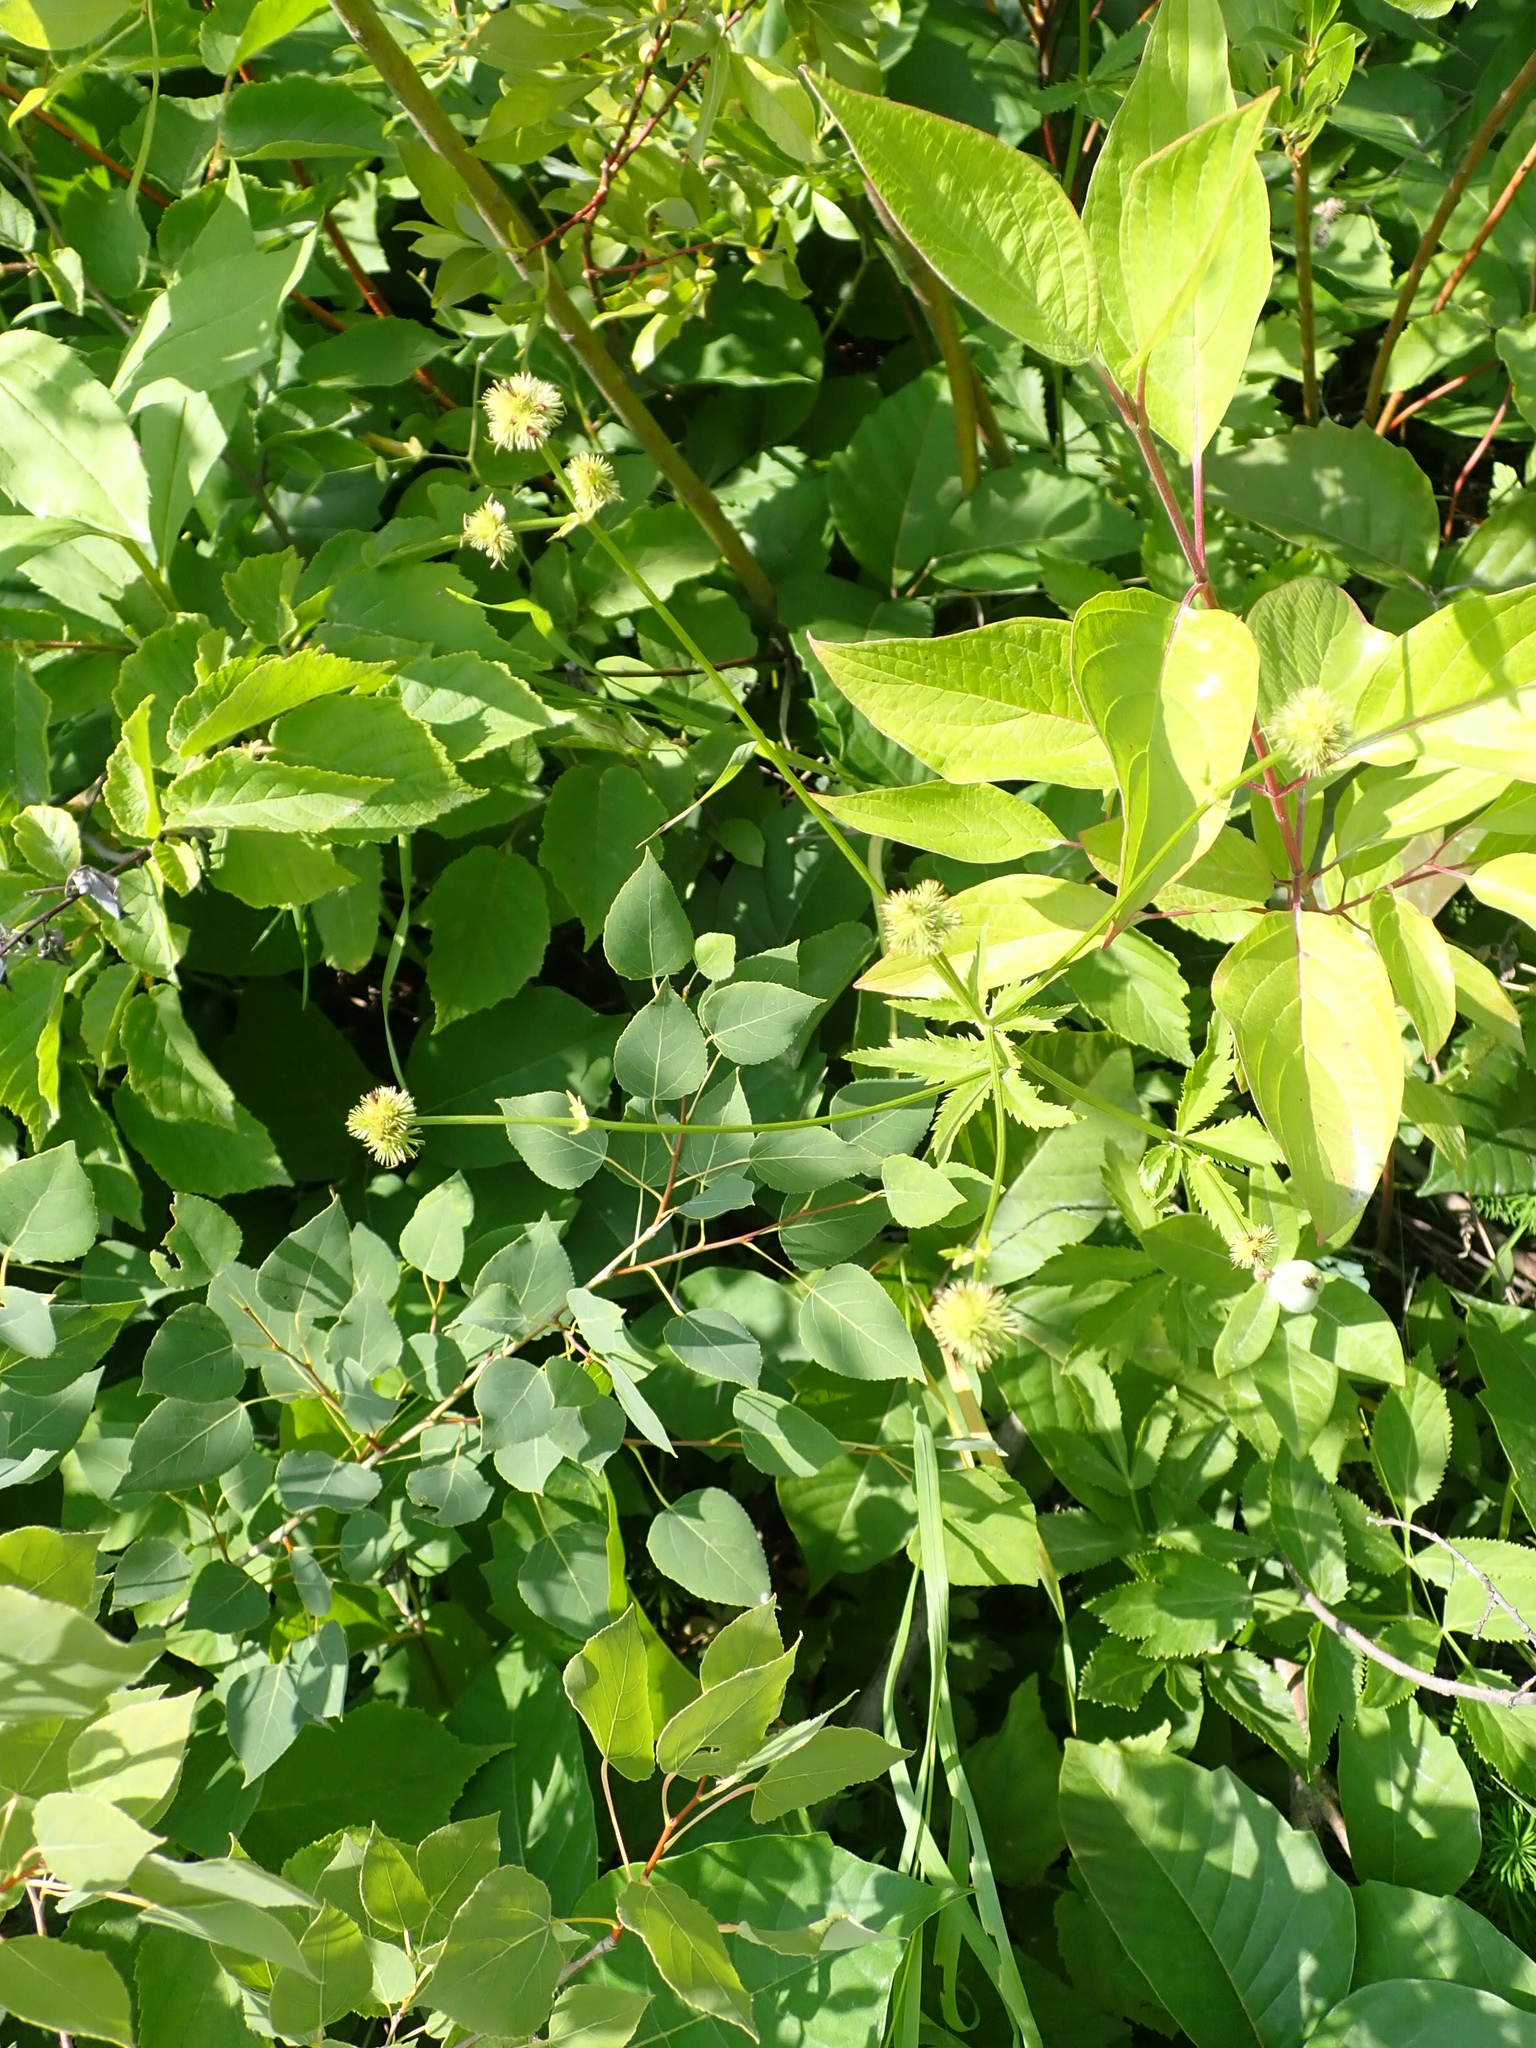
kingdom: Plantae
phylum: Tracheophyta
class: Magnoliopsida
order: Apiales
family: Apiaceae
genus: Sanicula
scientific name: Sanicula marilandica
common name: Black snakeroot
